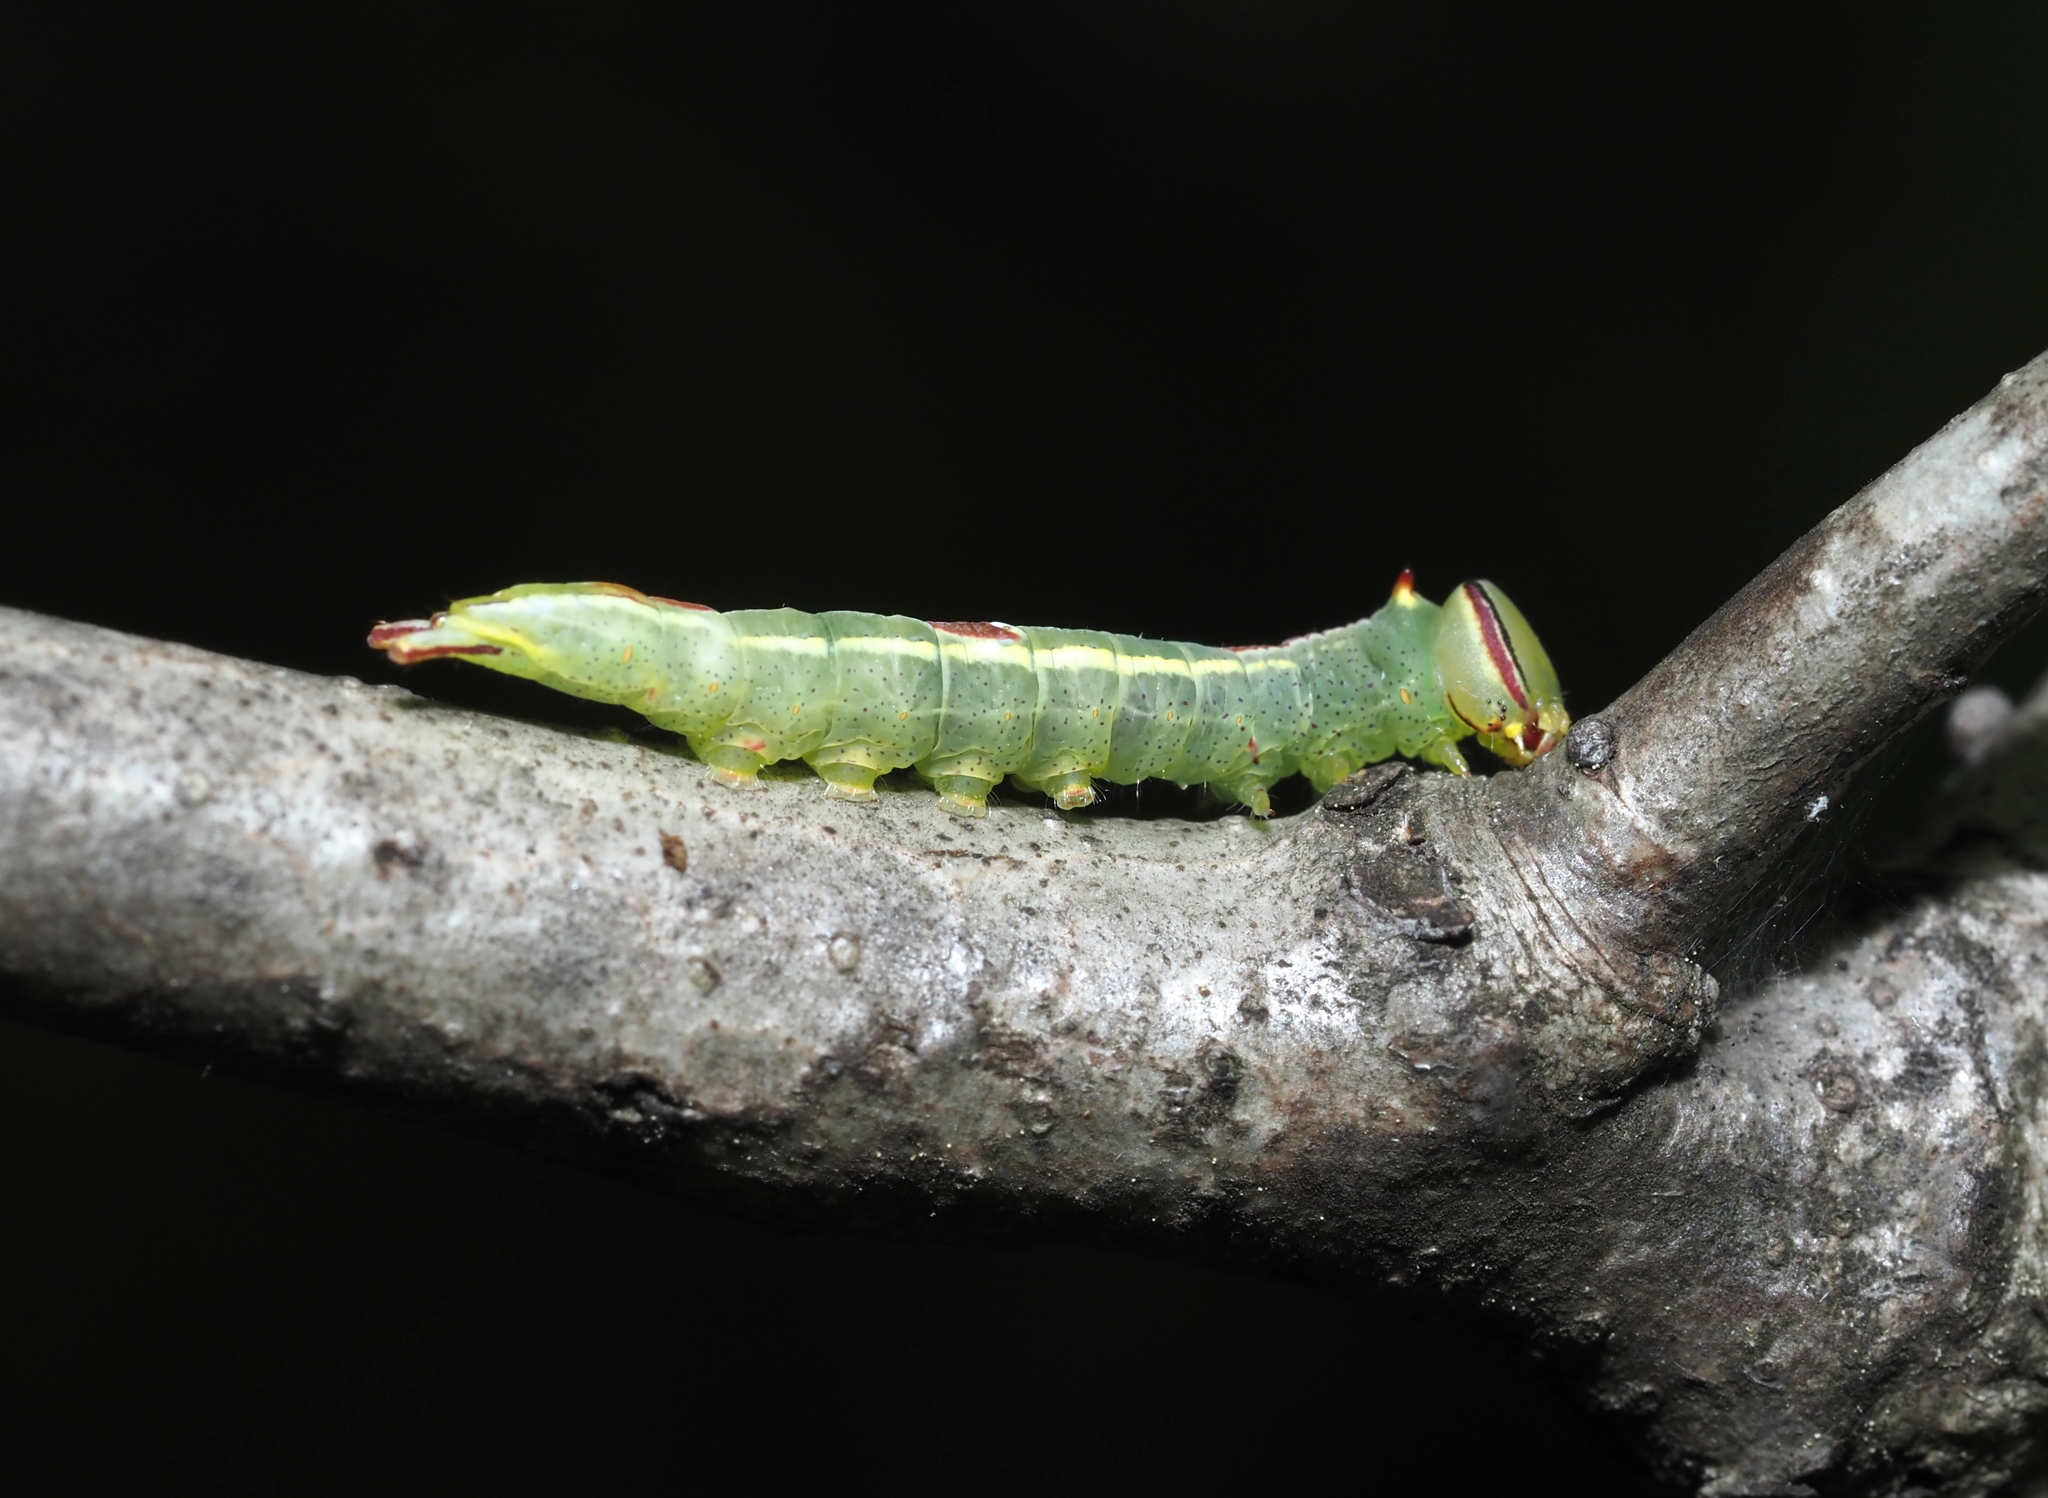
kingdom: Animalia
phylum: Arthropoda
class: Insecta
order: Lepidoptera
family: Notodontidae
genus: Disphragis
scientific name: Disphragis Cecrita guttivitta
